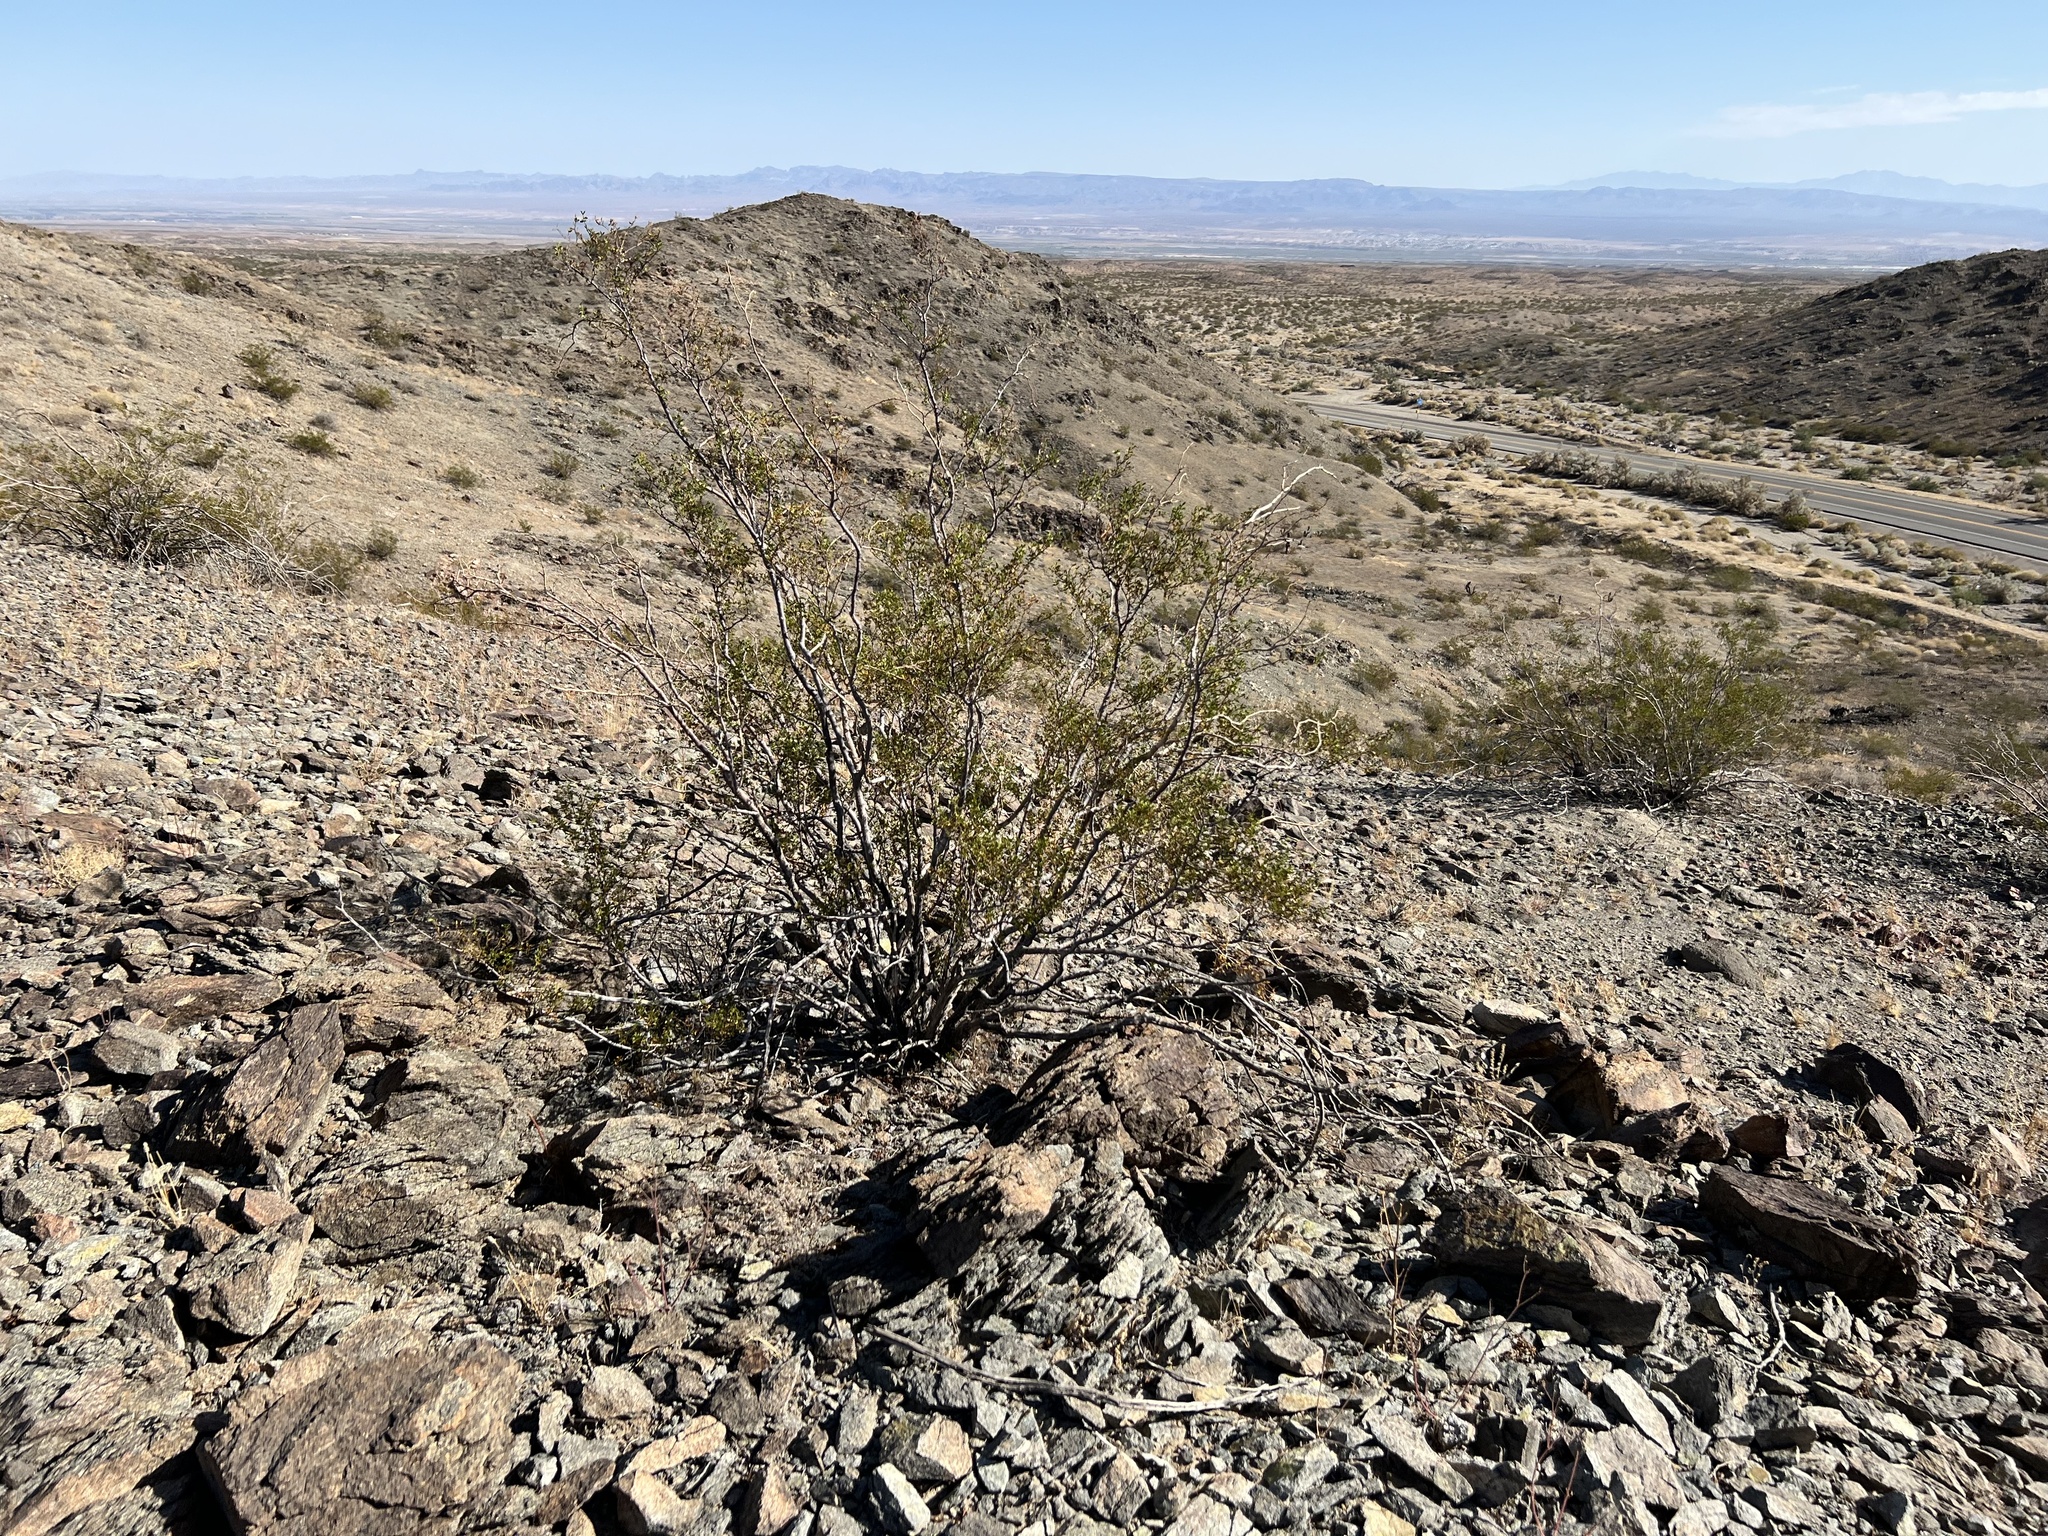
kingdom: Plantae
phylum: Tracheophyta
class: Magnoliopsida
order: Zygophyllales
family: Zygophyllaceae
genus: Larrea
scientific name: Larrea tridentata
